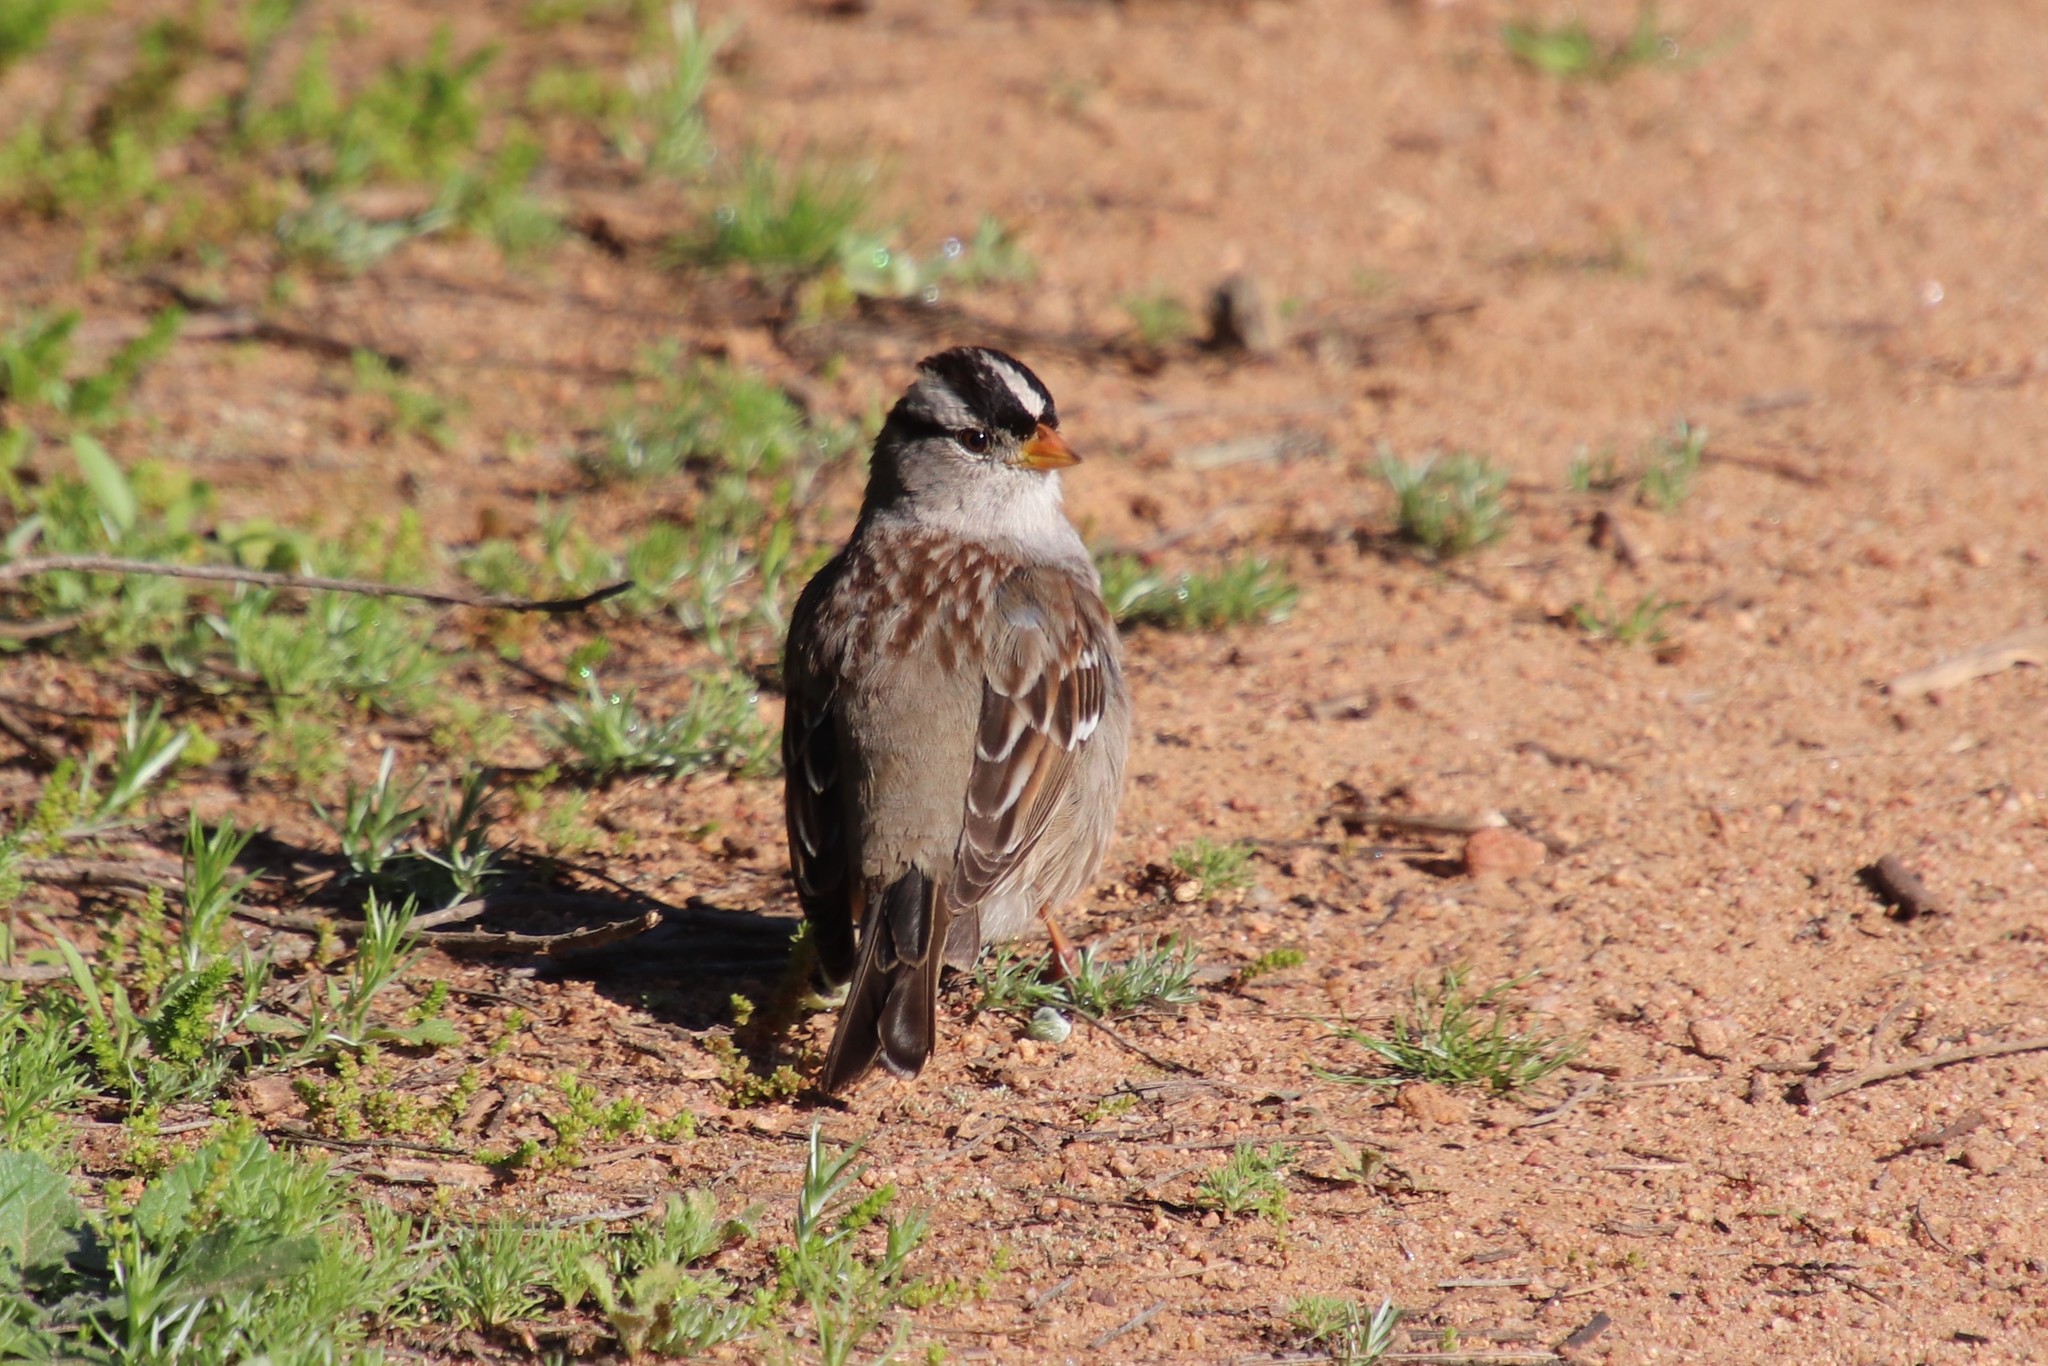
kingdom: Animalia
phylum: Chordata
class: Aves
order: Passeriformes
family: Passerellidae
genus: Zonotrichia
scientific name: Zonotrichia leucophrys
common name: White-crowned sparrow
